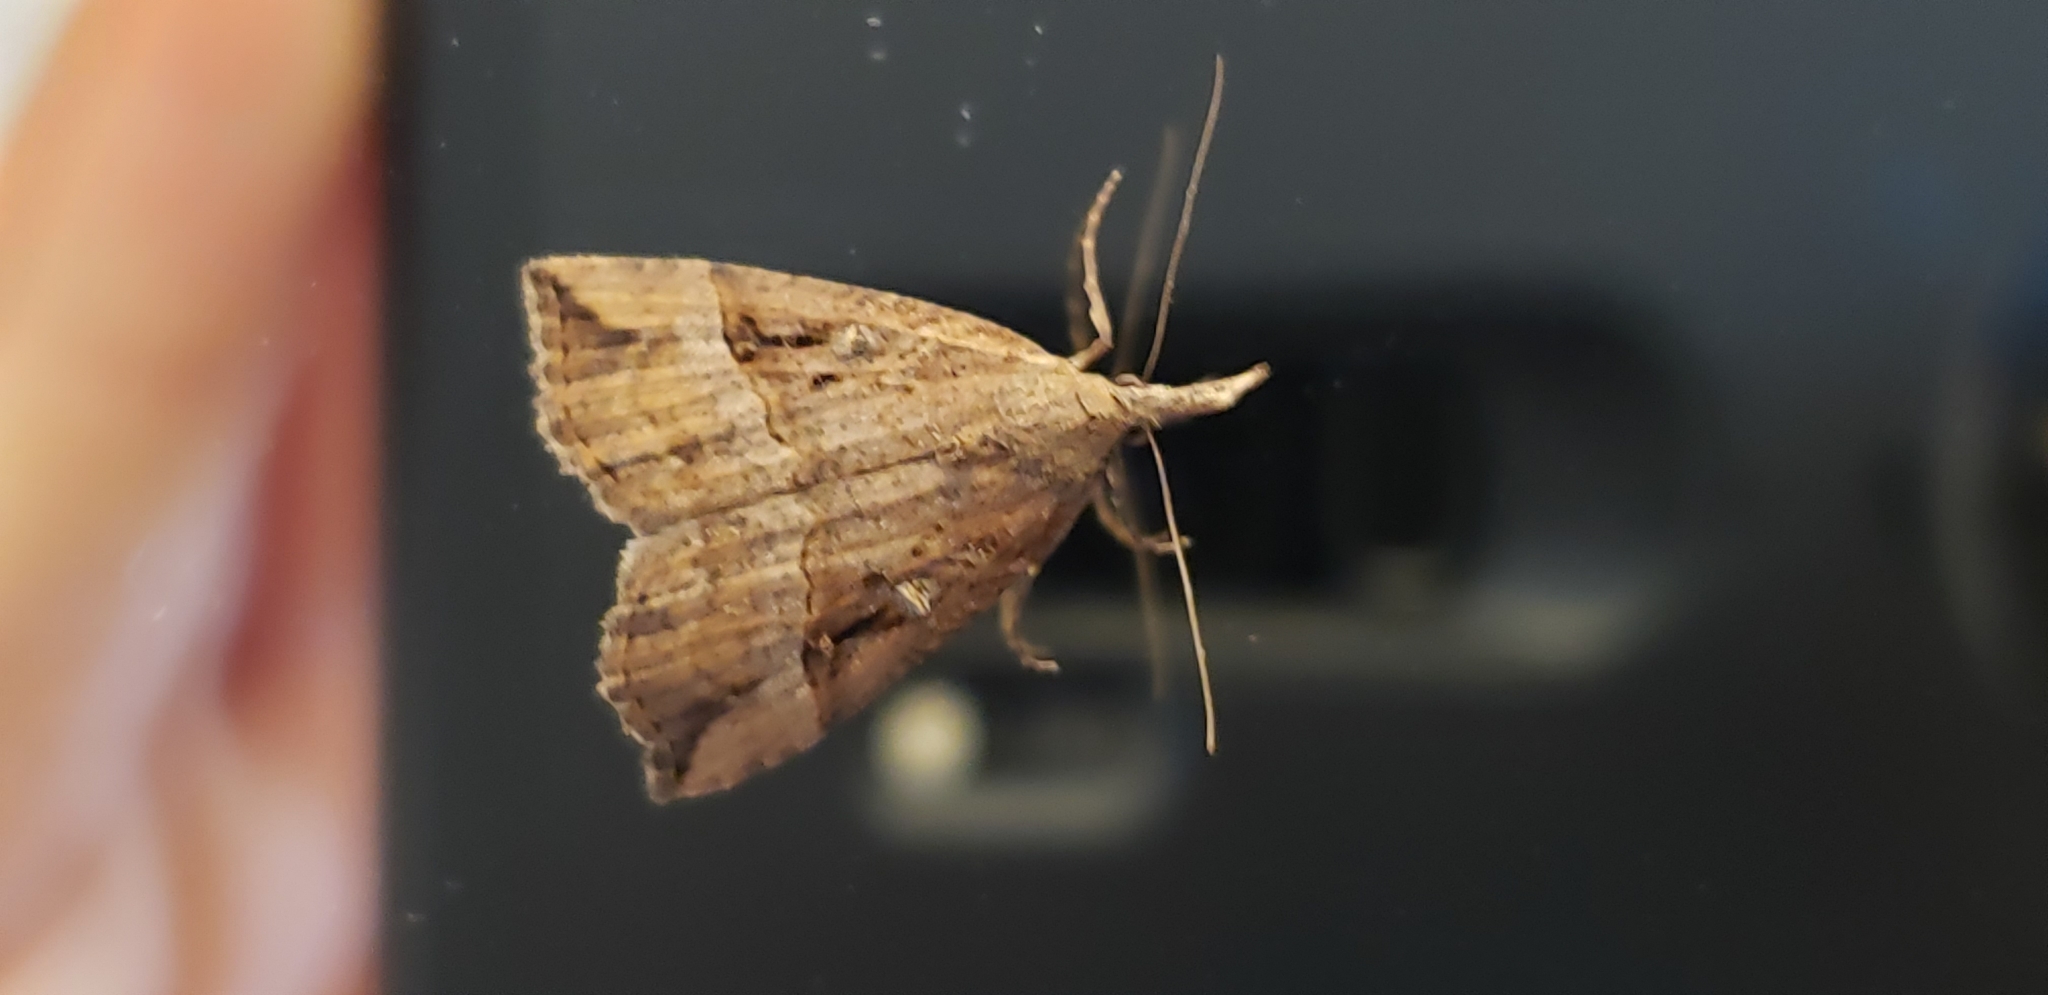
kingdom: Animalia
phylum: Arthropoda
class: Insecta
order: Lepidoptera
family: Erebidae
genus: Hypena
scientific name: Hypena rostralis
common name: Buttoned snout
